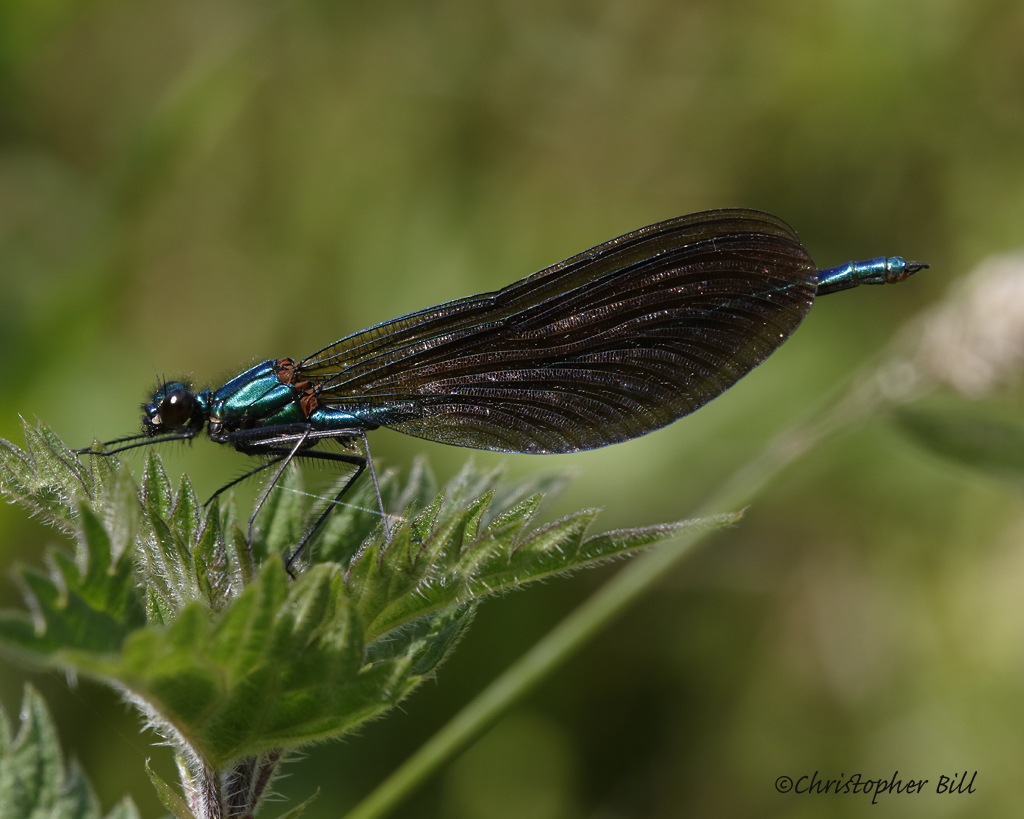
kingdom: Animalia
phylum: Arthropoda
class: Insecta
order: Odonata
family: Calopterygidae
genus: Calopteryx
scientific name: Calopteryx virgo
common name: Beautiful demoiselle
